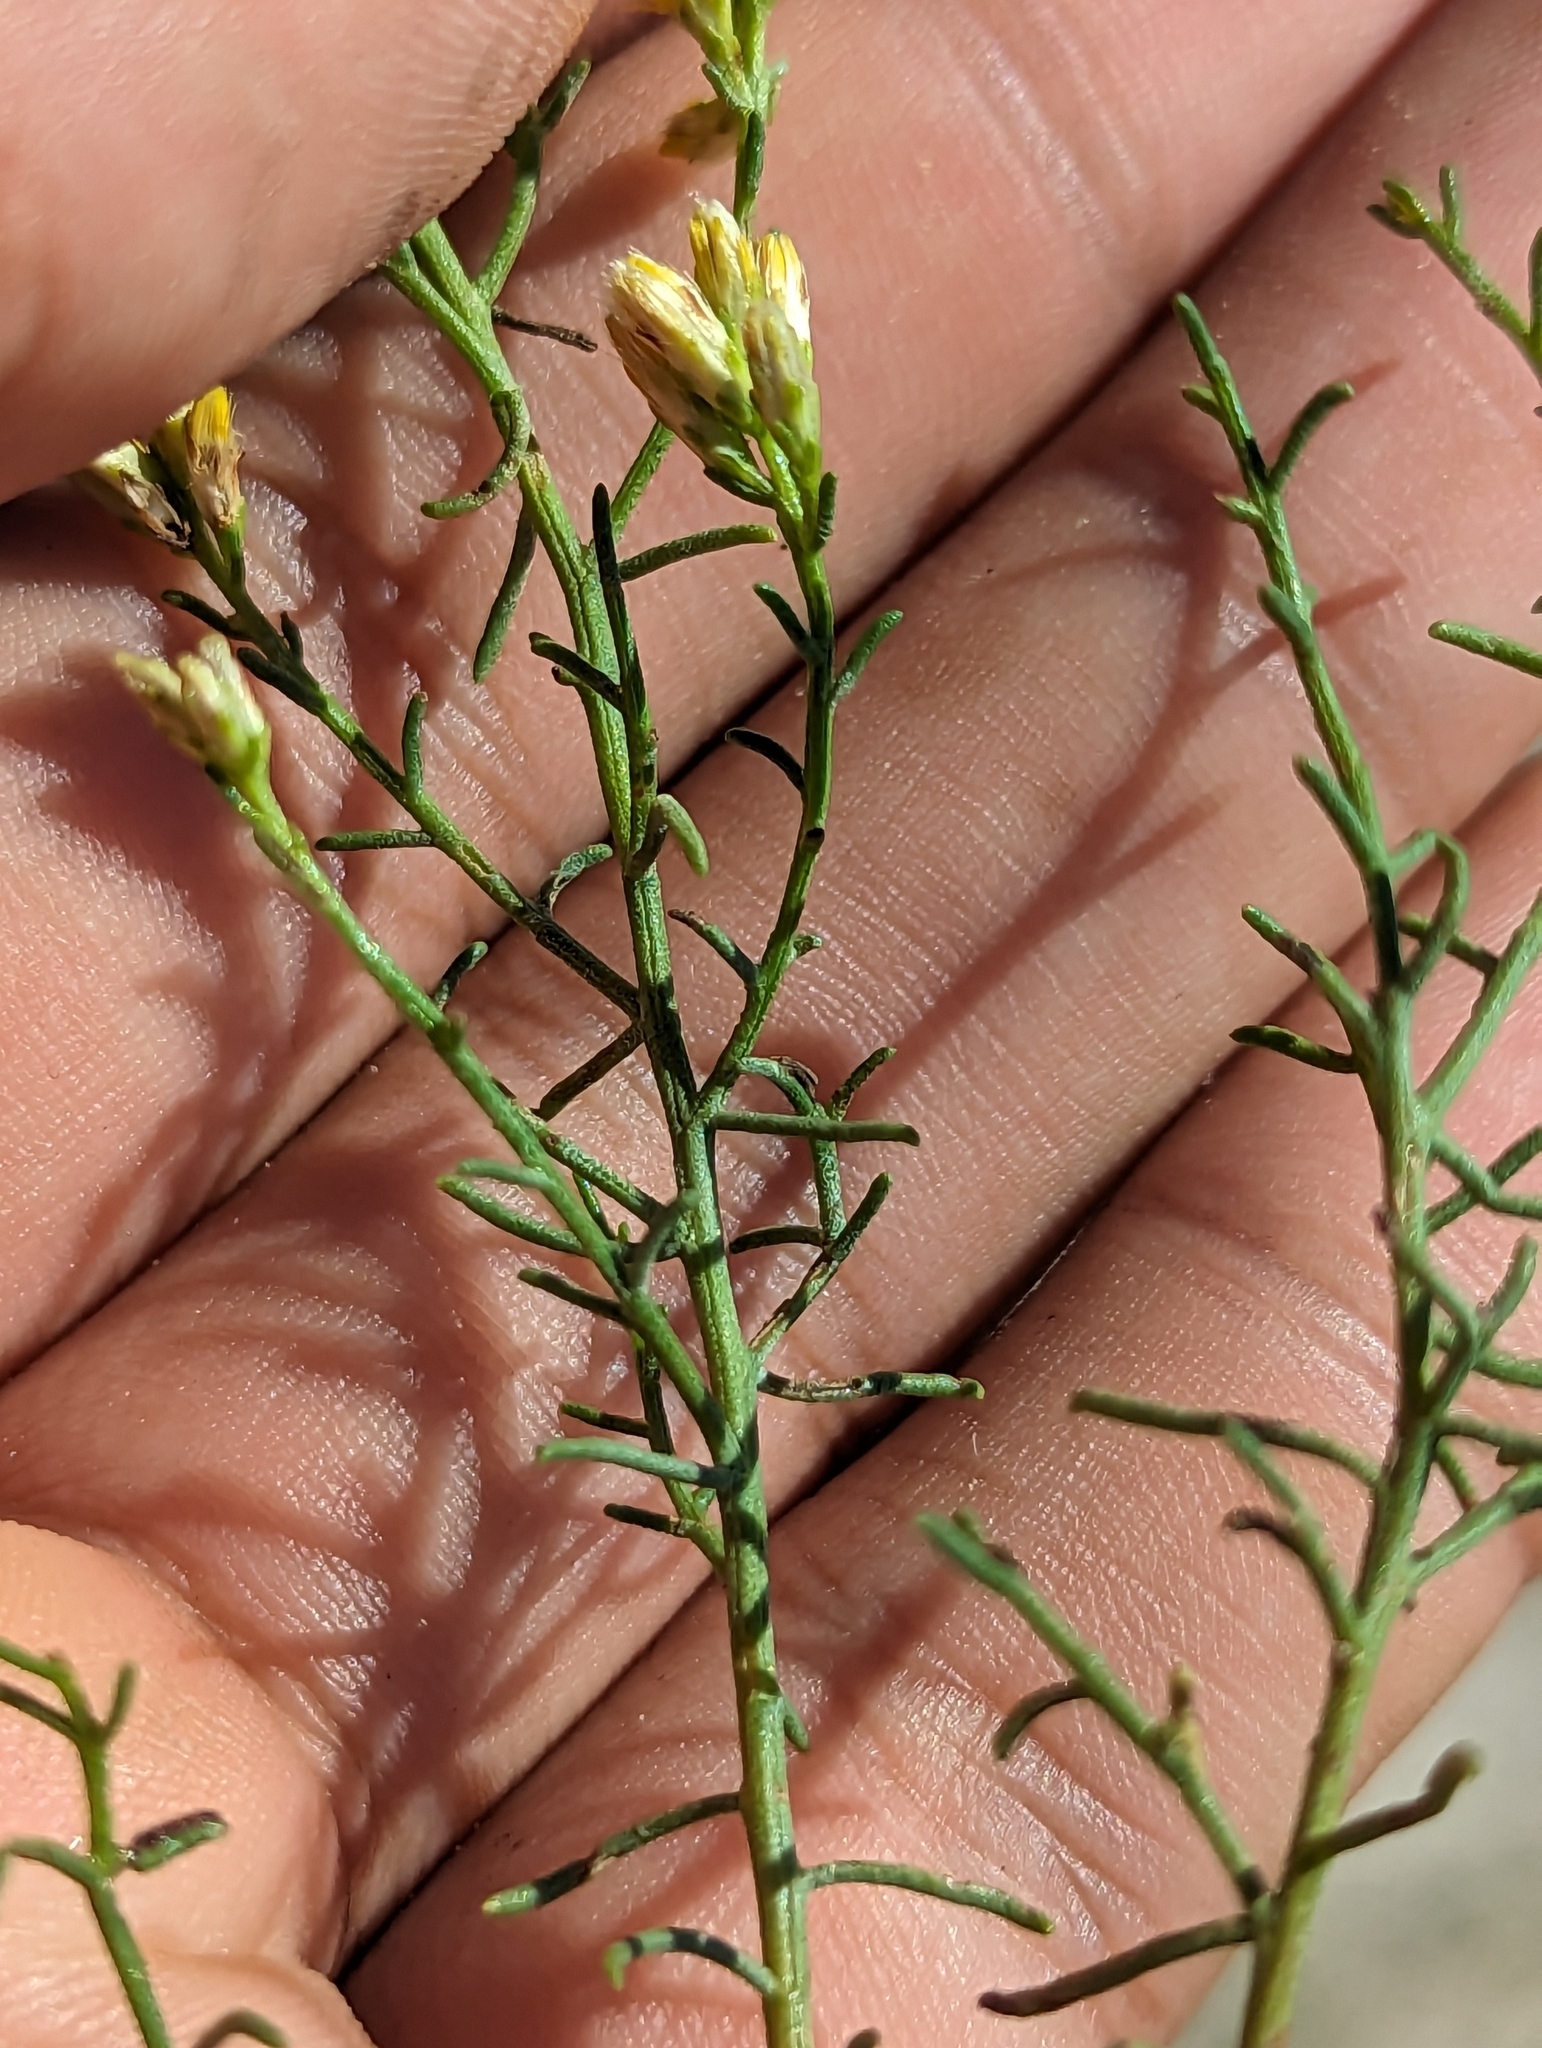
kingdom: Plantae
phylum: Tracheophyta
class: Magnoliopsida
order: Asterales
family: Asteraceae
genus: Gundlachia
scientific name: Gundlachia diffusa
